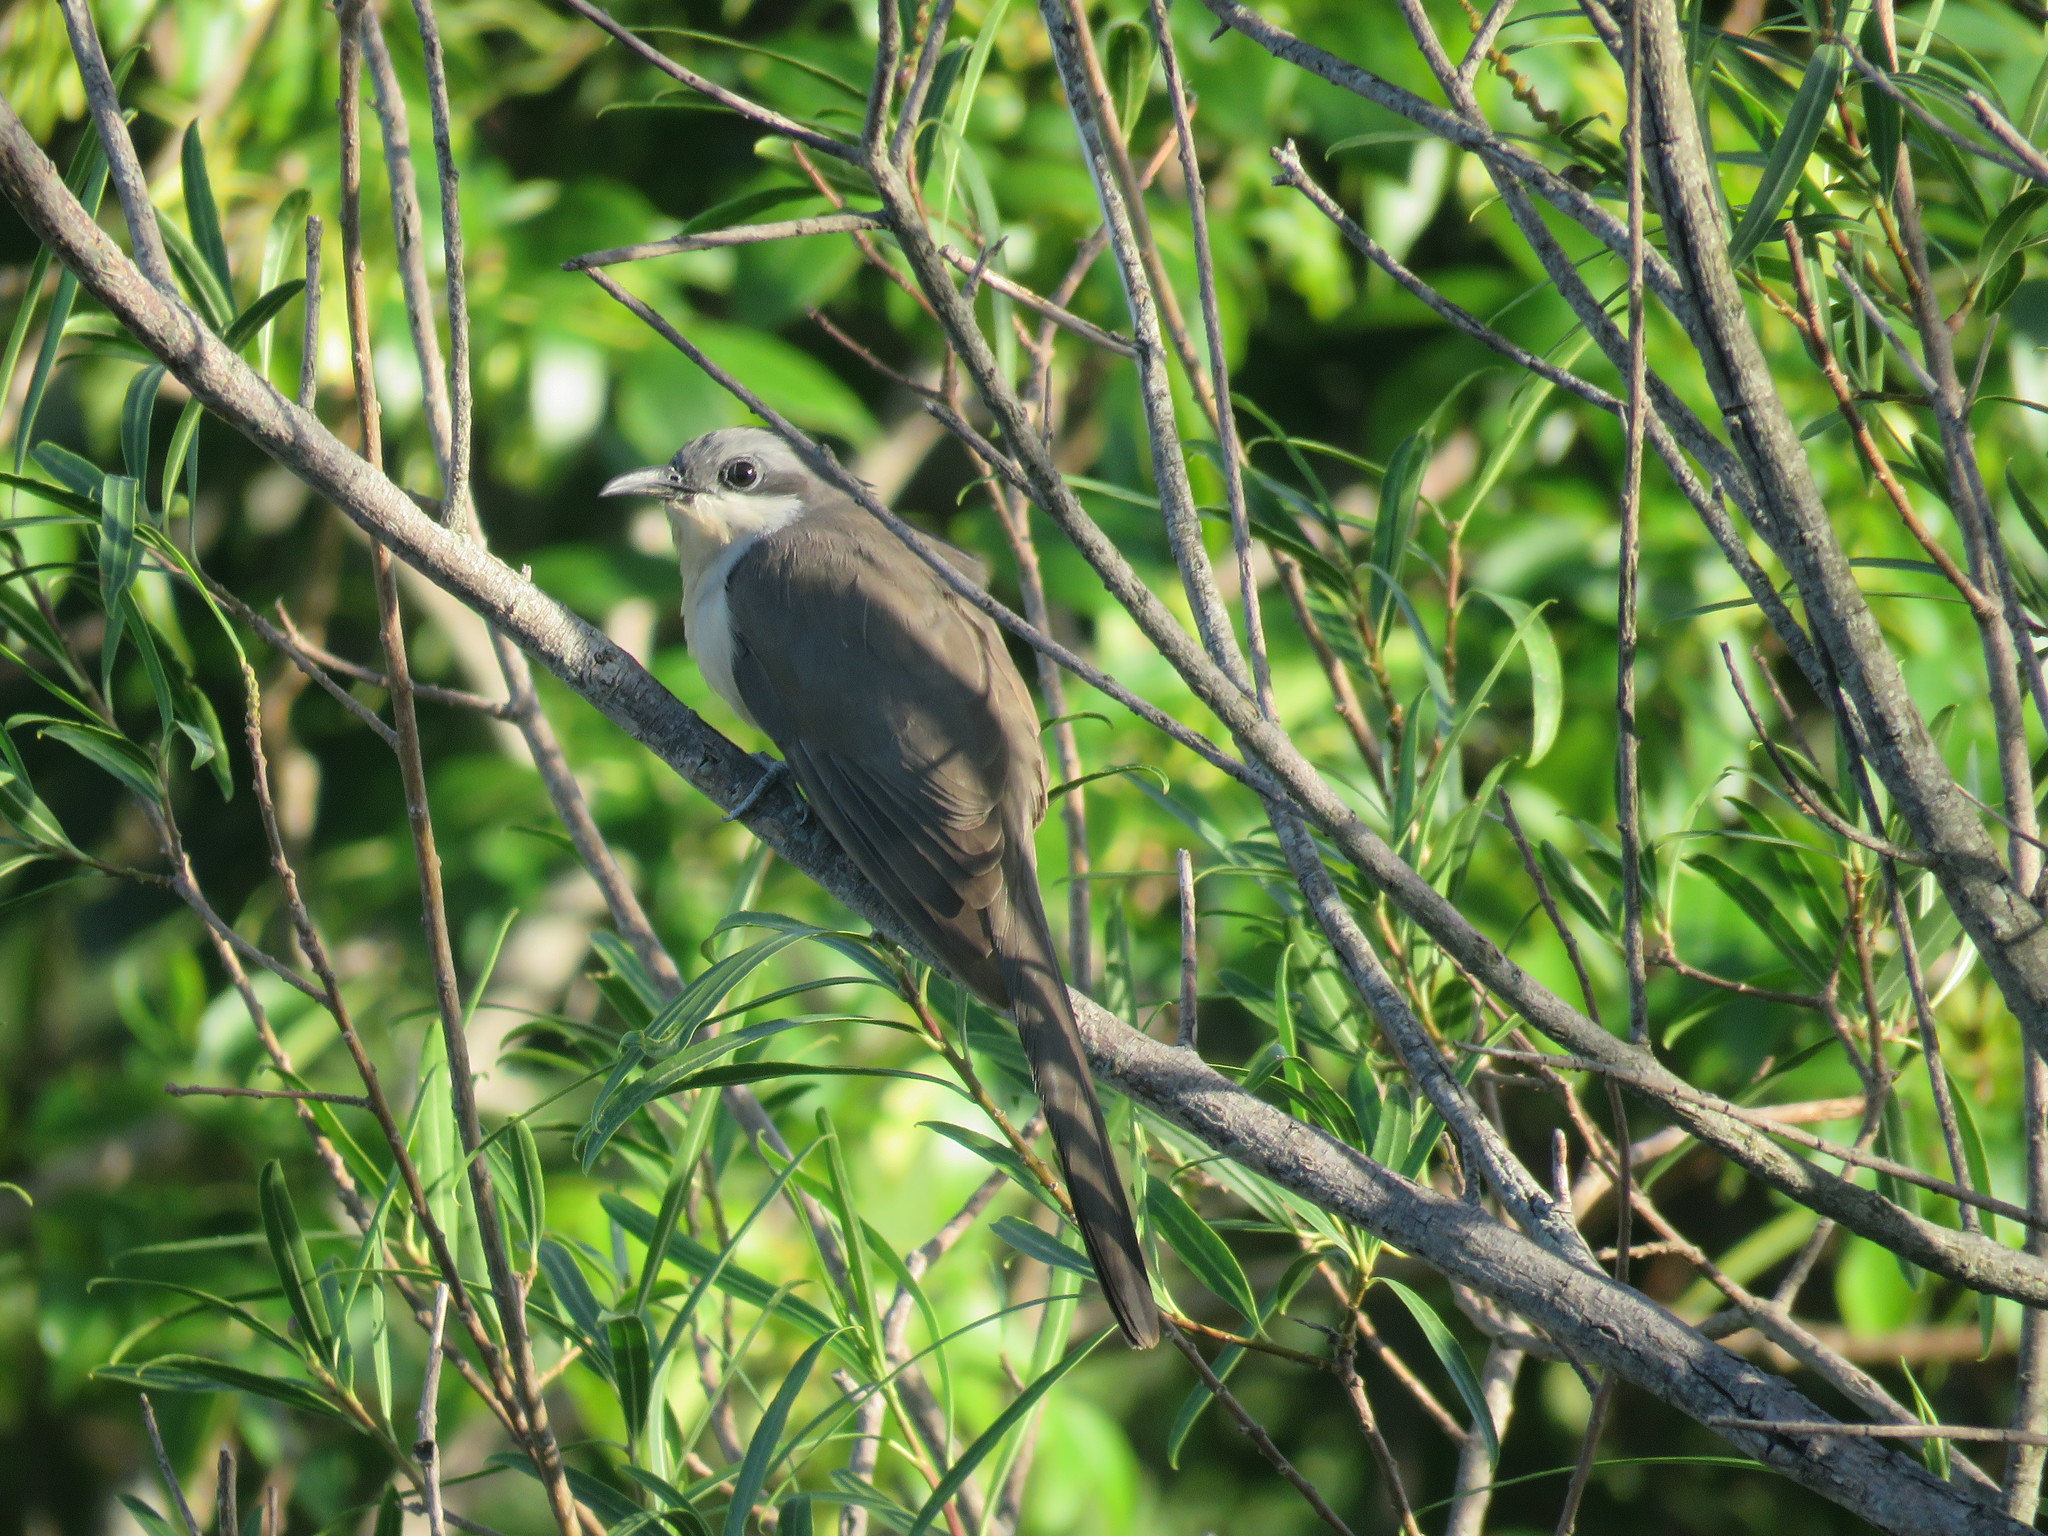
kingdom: Animalia
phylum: Chordata
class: Aves
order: Cuculiformes
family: Cuculidae
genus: Coccyzus
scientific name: Coccyzus melacoryphus
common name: Dark-billed cuckoo
